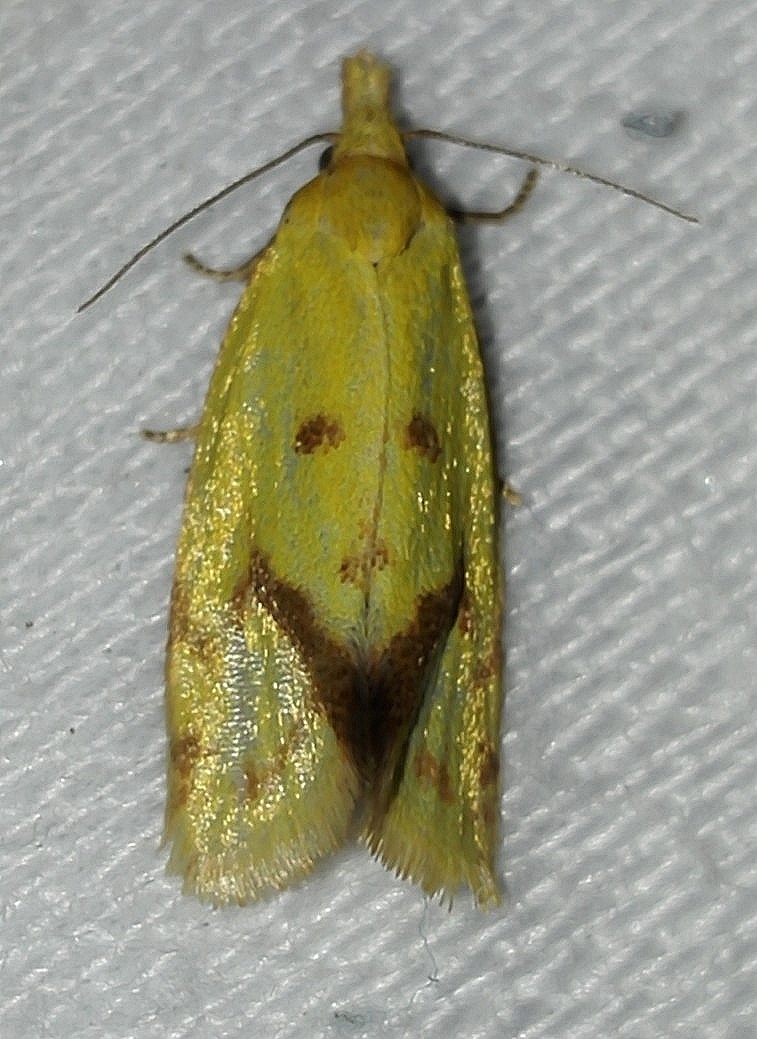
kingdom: Animalia
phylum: Arthropoda
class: Insecta
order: Lepidoptera
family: Tortricidae
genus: Agapeta
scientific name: Agapeta hamana
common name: Common yellow conch
